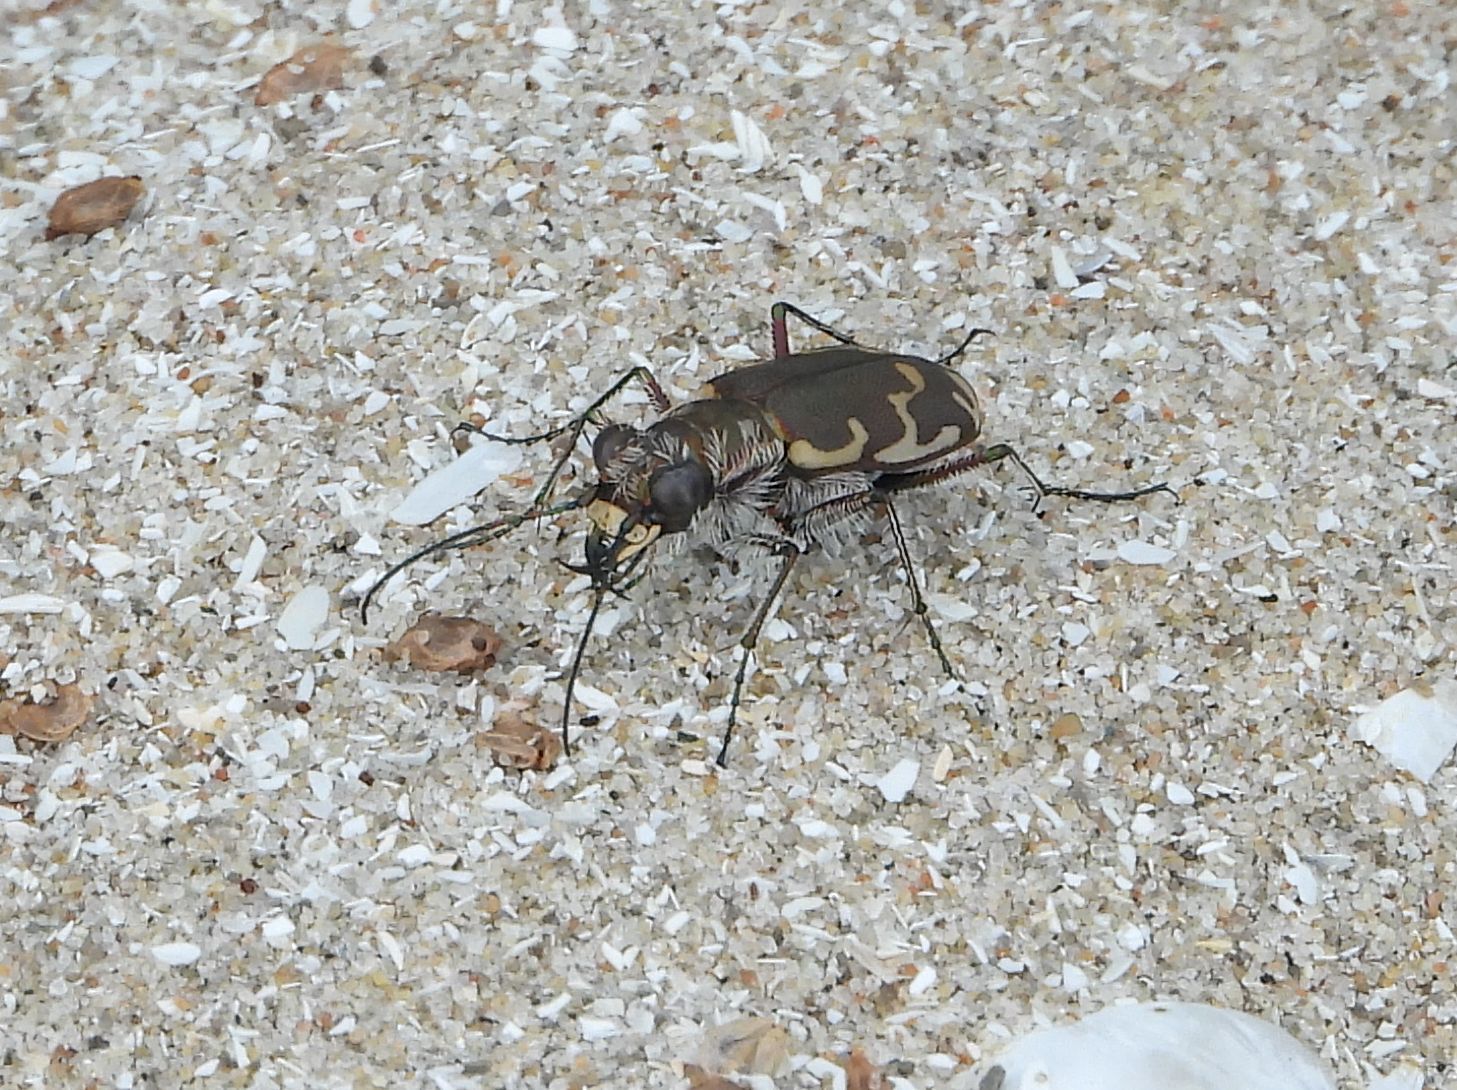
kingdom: Animalia
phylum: Arthropoda
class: Insecta
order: Coleoptera
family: Carabidae
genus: Cicindela
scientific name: Cicindela repanda
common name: Bronzed tiger beetle
